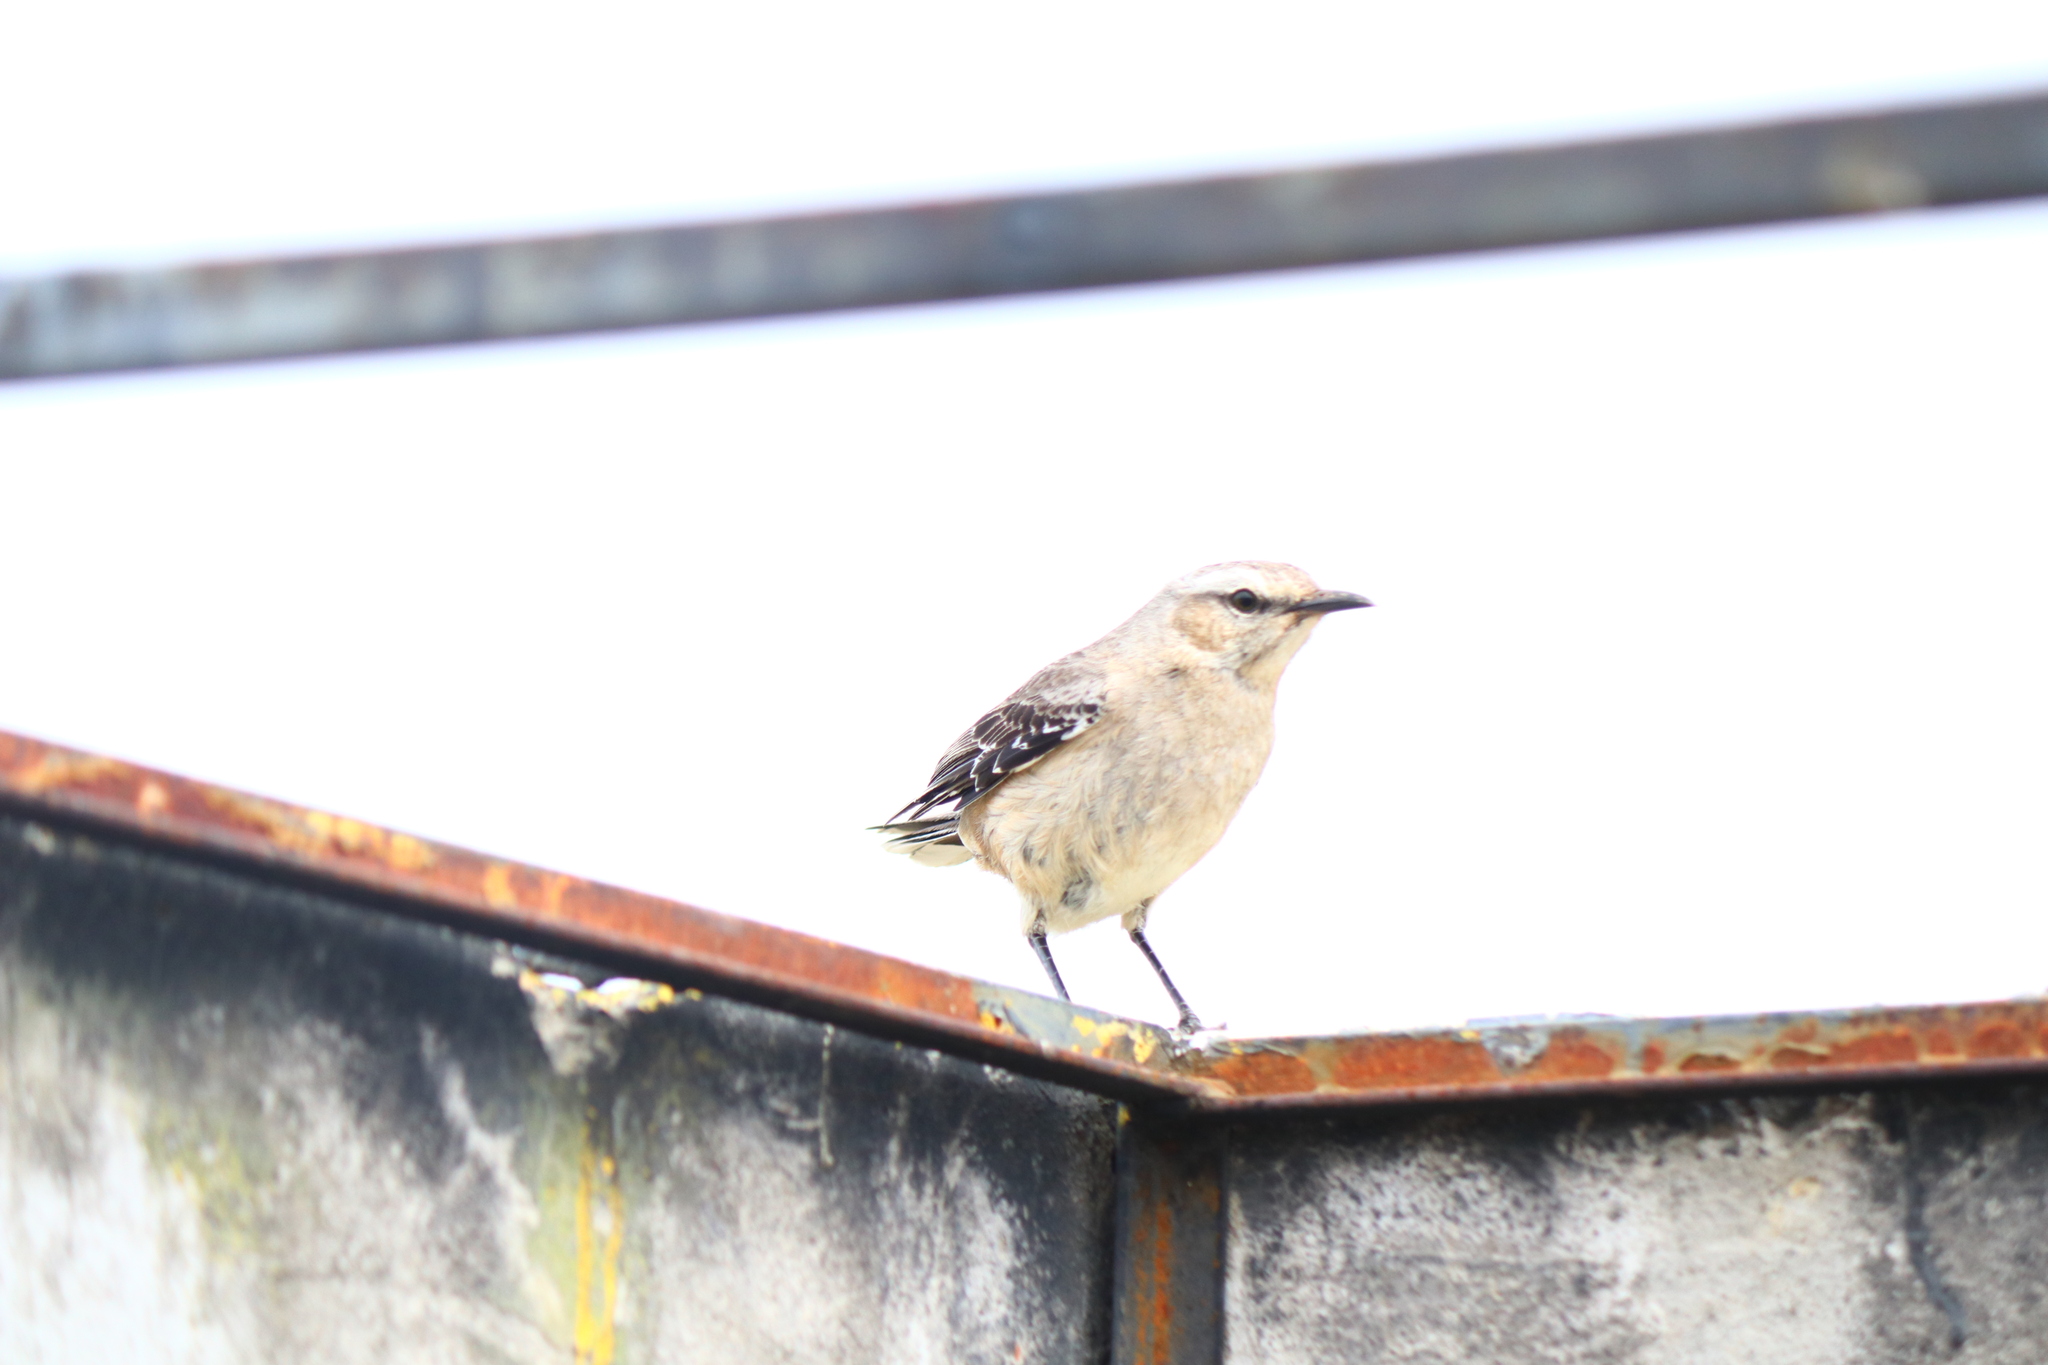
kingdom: Animalia
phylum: Chordata
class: Aves
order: Passeriformes
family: Mimidae
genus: Mimus
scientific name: Mimus patagonicus
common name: Patagonian mockingbird
